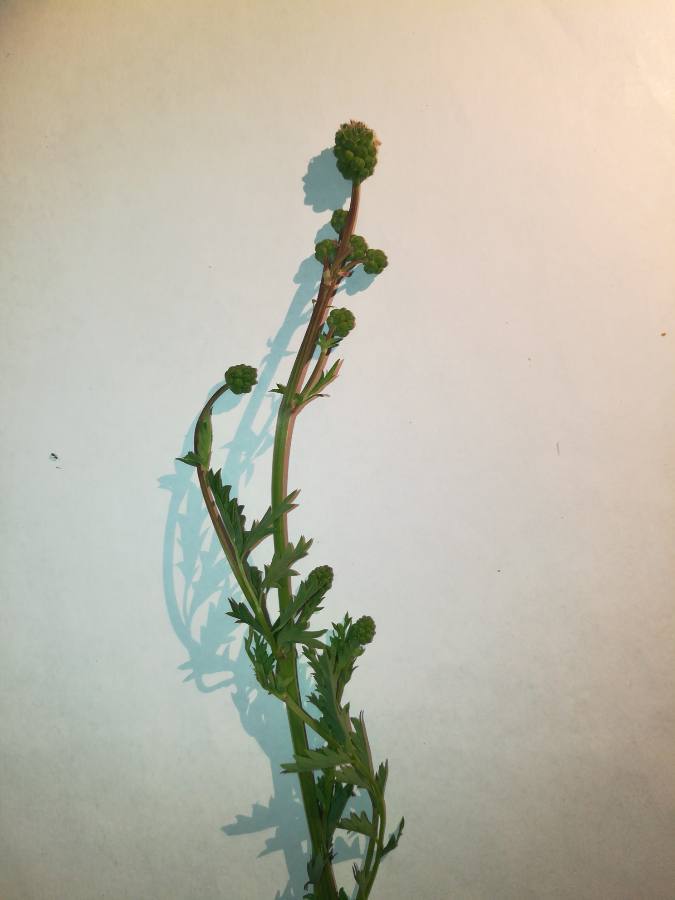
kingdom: Plantae
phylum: Tracheophyta
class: Magnoliopsida
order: Rosales
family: Rosaceae
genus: Poterium
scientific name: Poterium sanguisorba
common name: Salad burnet
